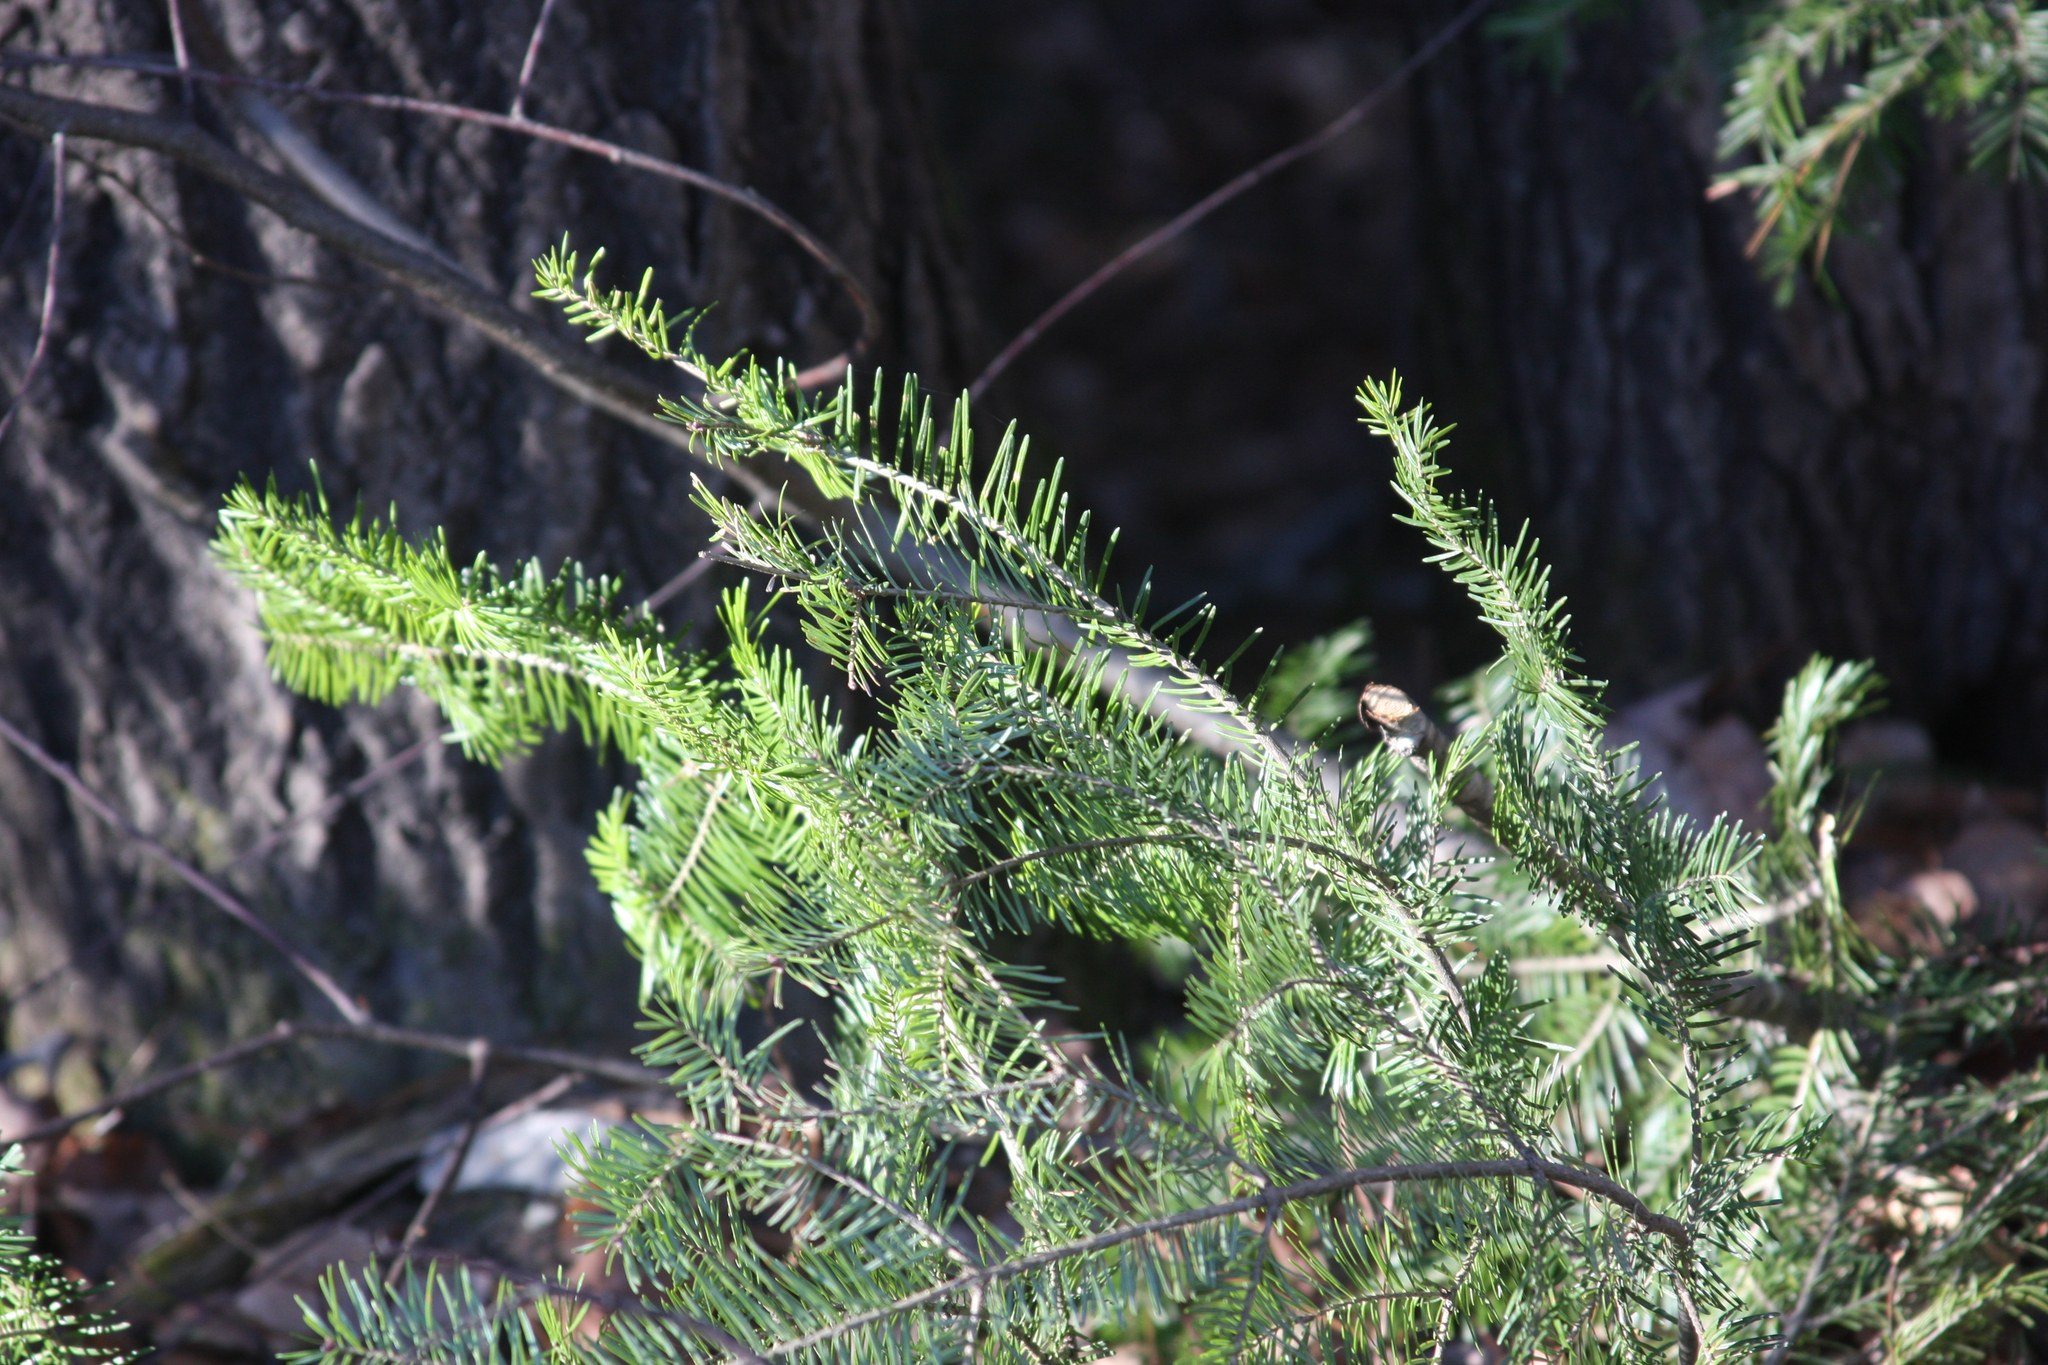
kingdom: Plantae
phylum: Tracheophyta
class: Pinopsida
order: Pinales
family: Pinaceae
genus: Abies
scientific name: Abies balsamea
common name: Balsam fir
